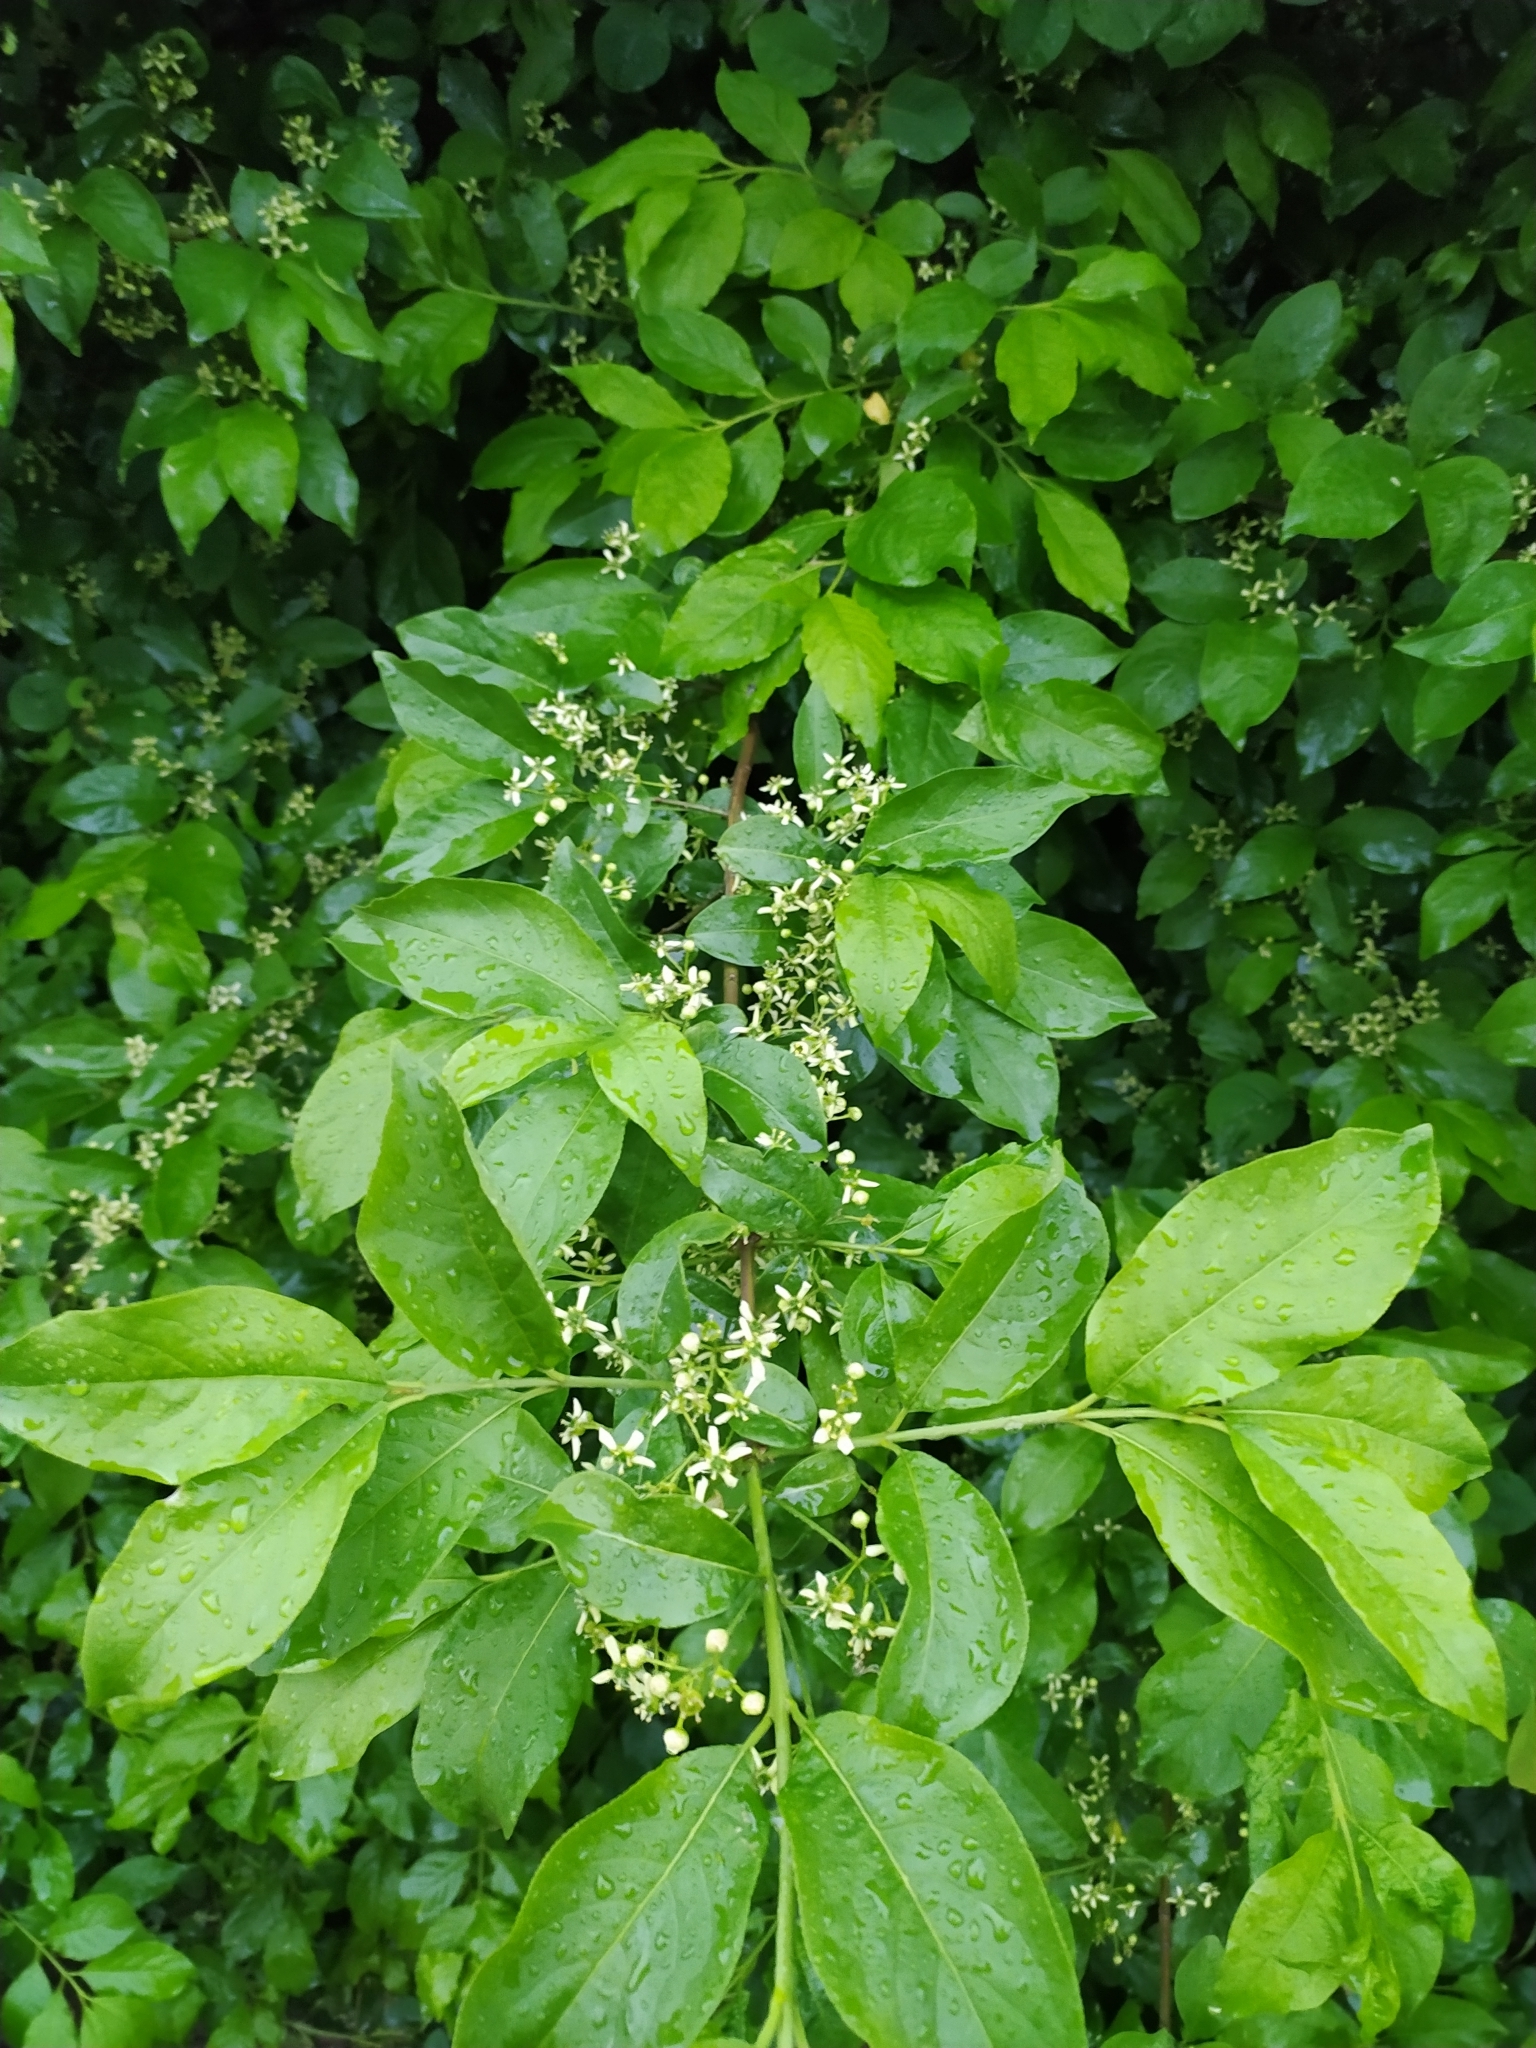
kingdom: Plantae
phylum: Tracheophyta
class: Magnoliopsida
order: Celastrales
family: Celastraceae
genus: Euonymus
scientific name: Euonymus europaeus
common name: Spindle
